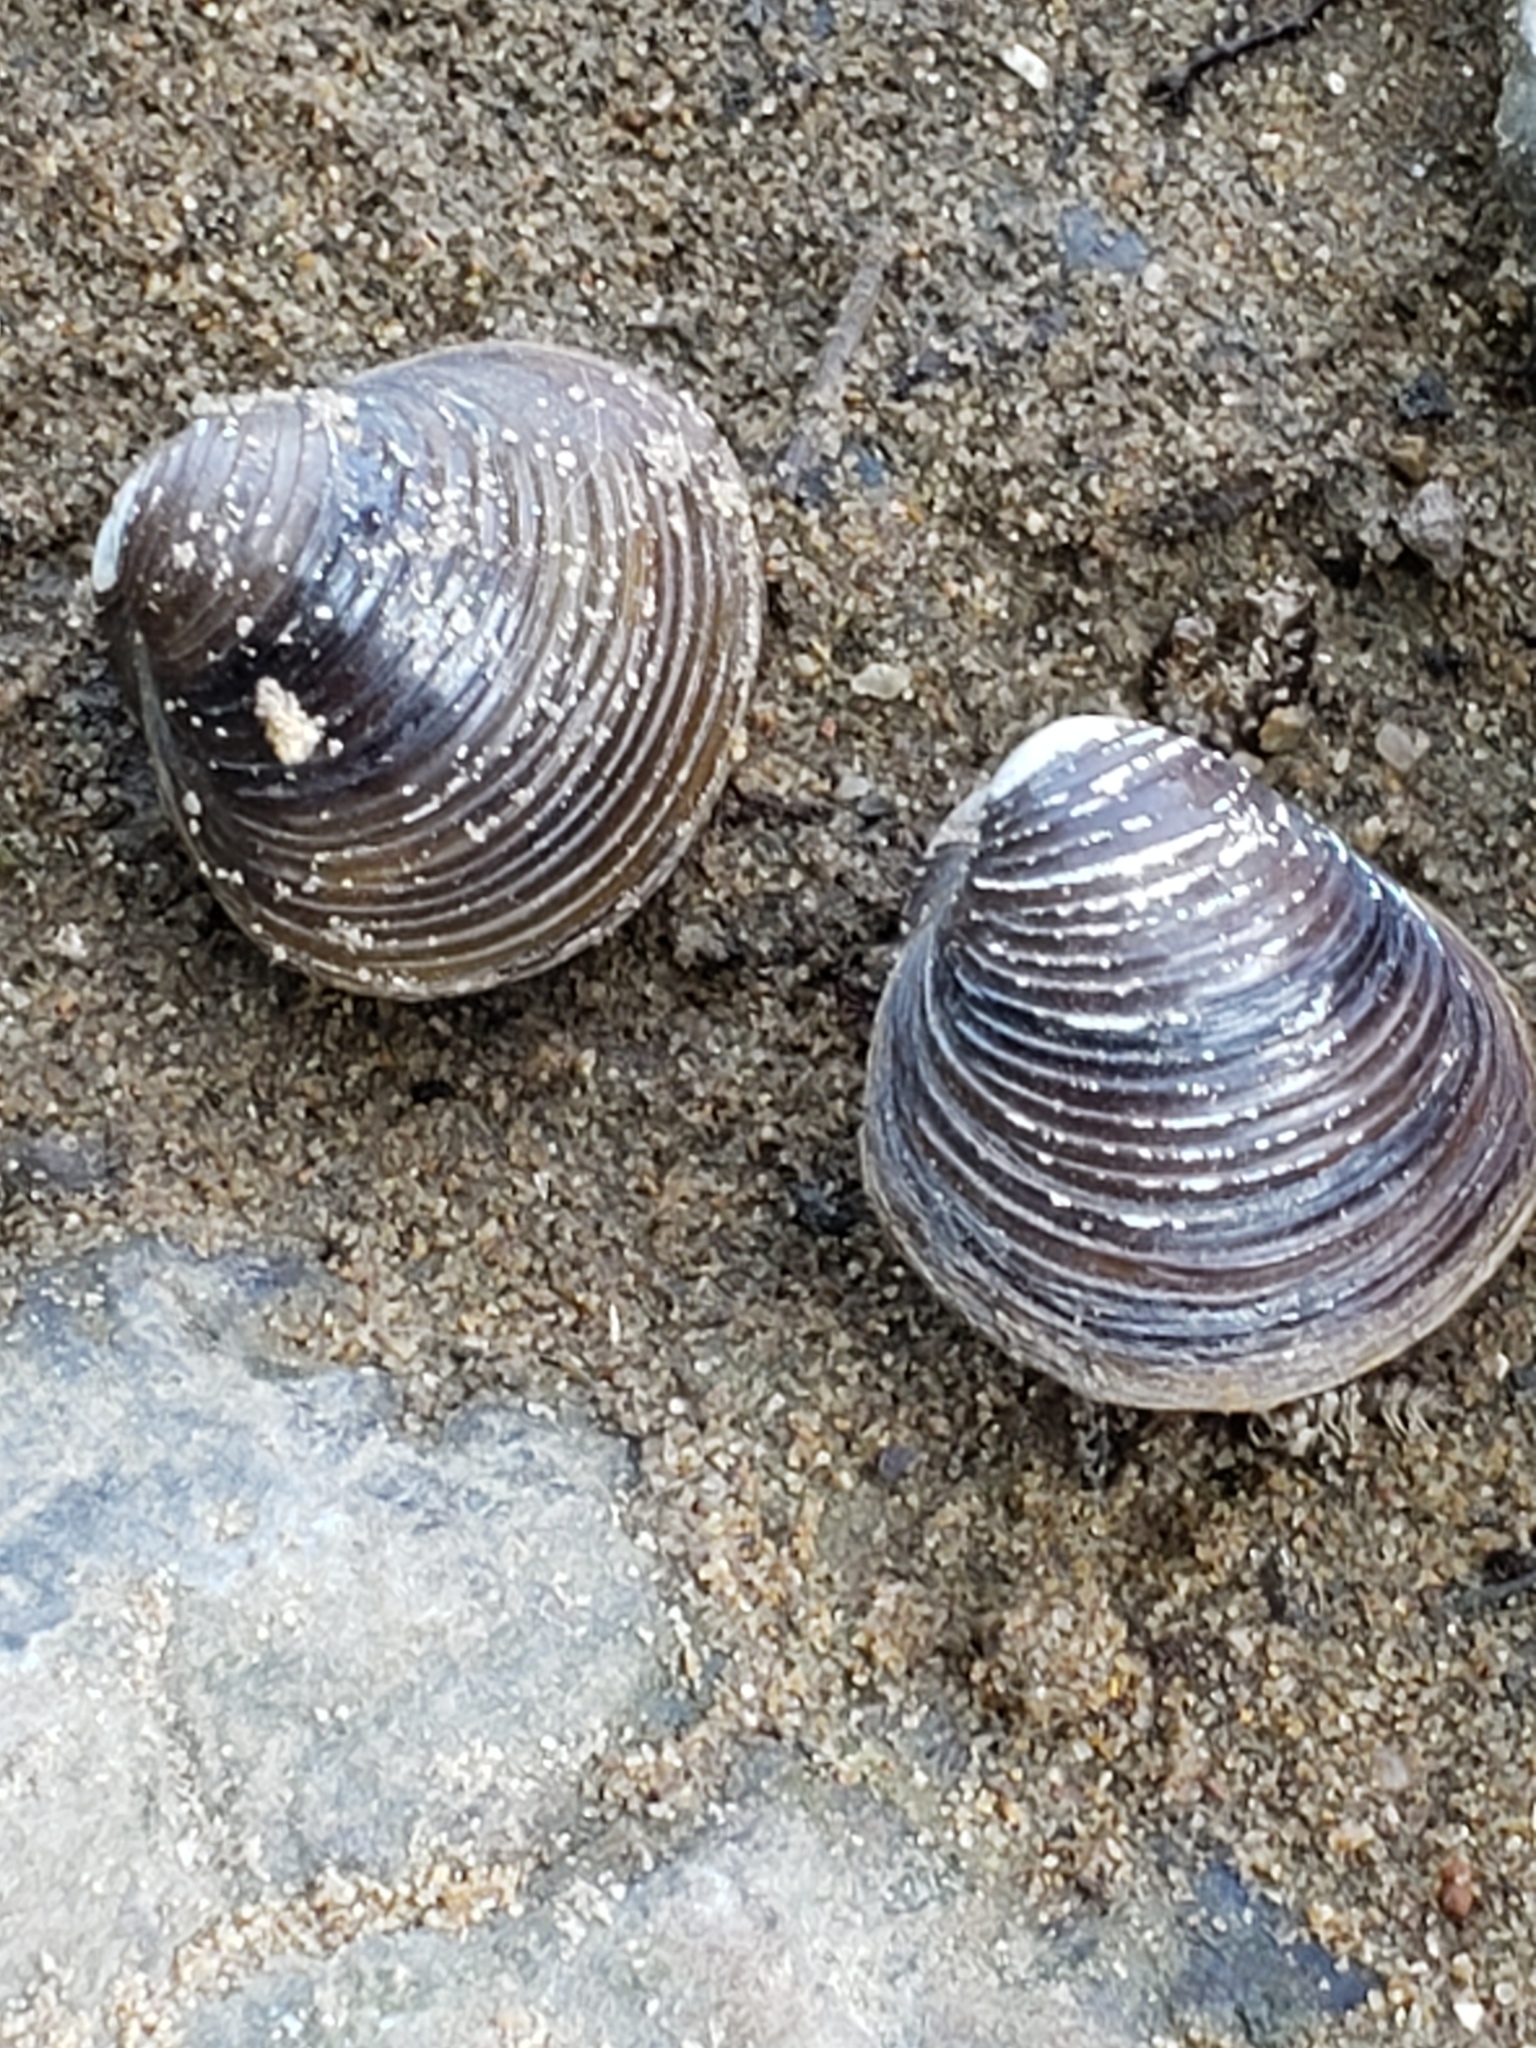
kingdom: Animalia
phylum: Mollusca
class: Bivalvia
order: Venerida
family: Cyrenidae
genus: Corbicula
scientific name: Corbicula fluminea
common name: Asian clam
